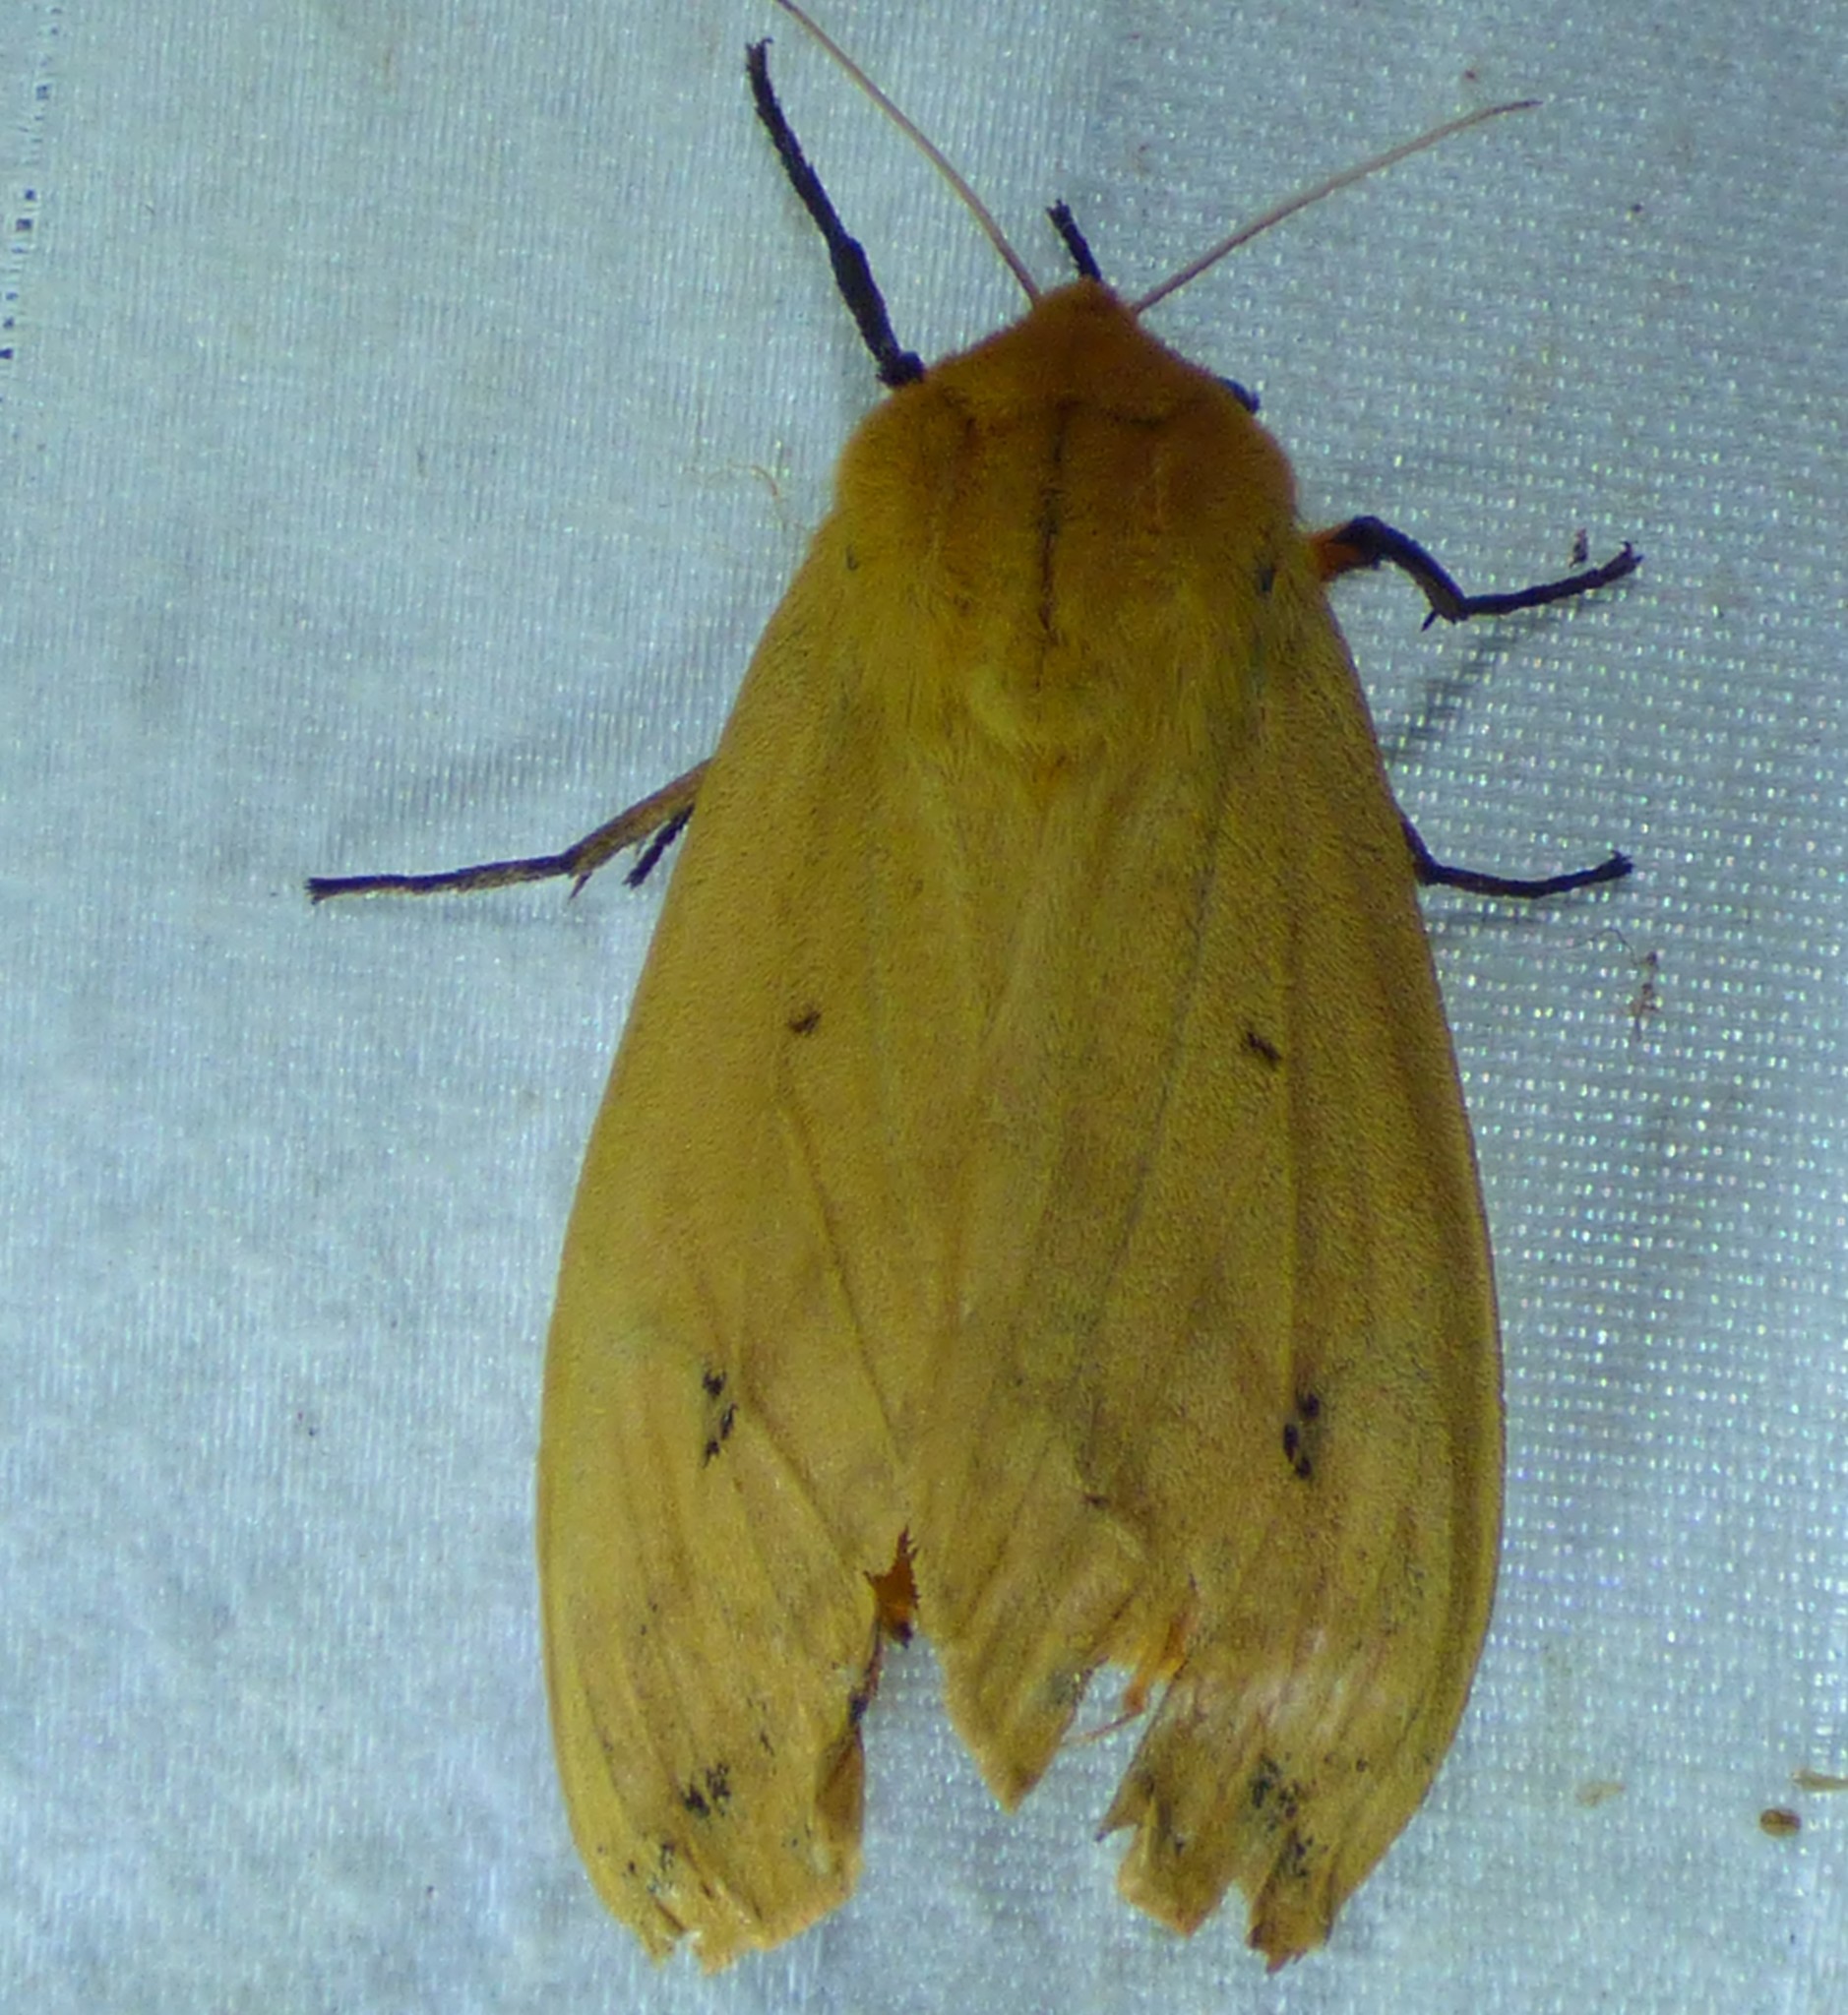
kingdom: Animalia
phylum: Arthropoda
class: Insecta
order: Lepidoptera
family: Erebidae
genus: Pyrrharctia
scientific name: Pyrrharctia isabella
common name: Isabella tiger moth
